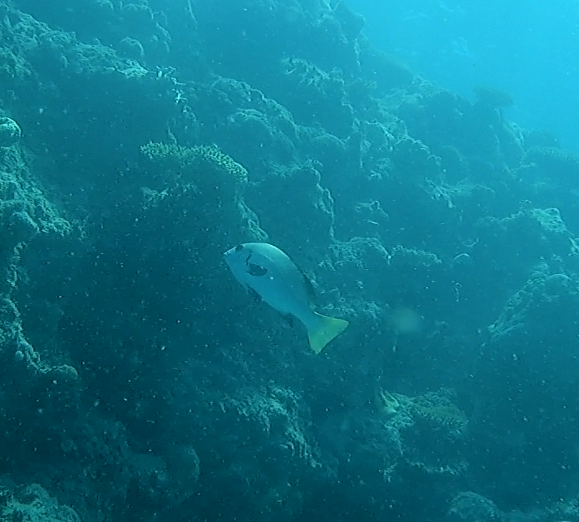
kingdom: Animalia
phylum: Chordata
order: Perciformes
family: Haemulidae
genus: Plectorhinchus
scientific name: Plectorhinchus schotaf
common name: Minstrel sweetlips
